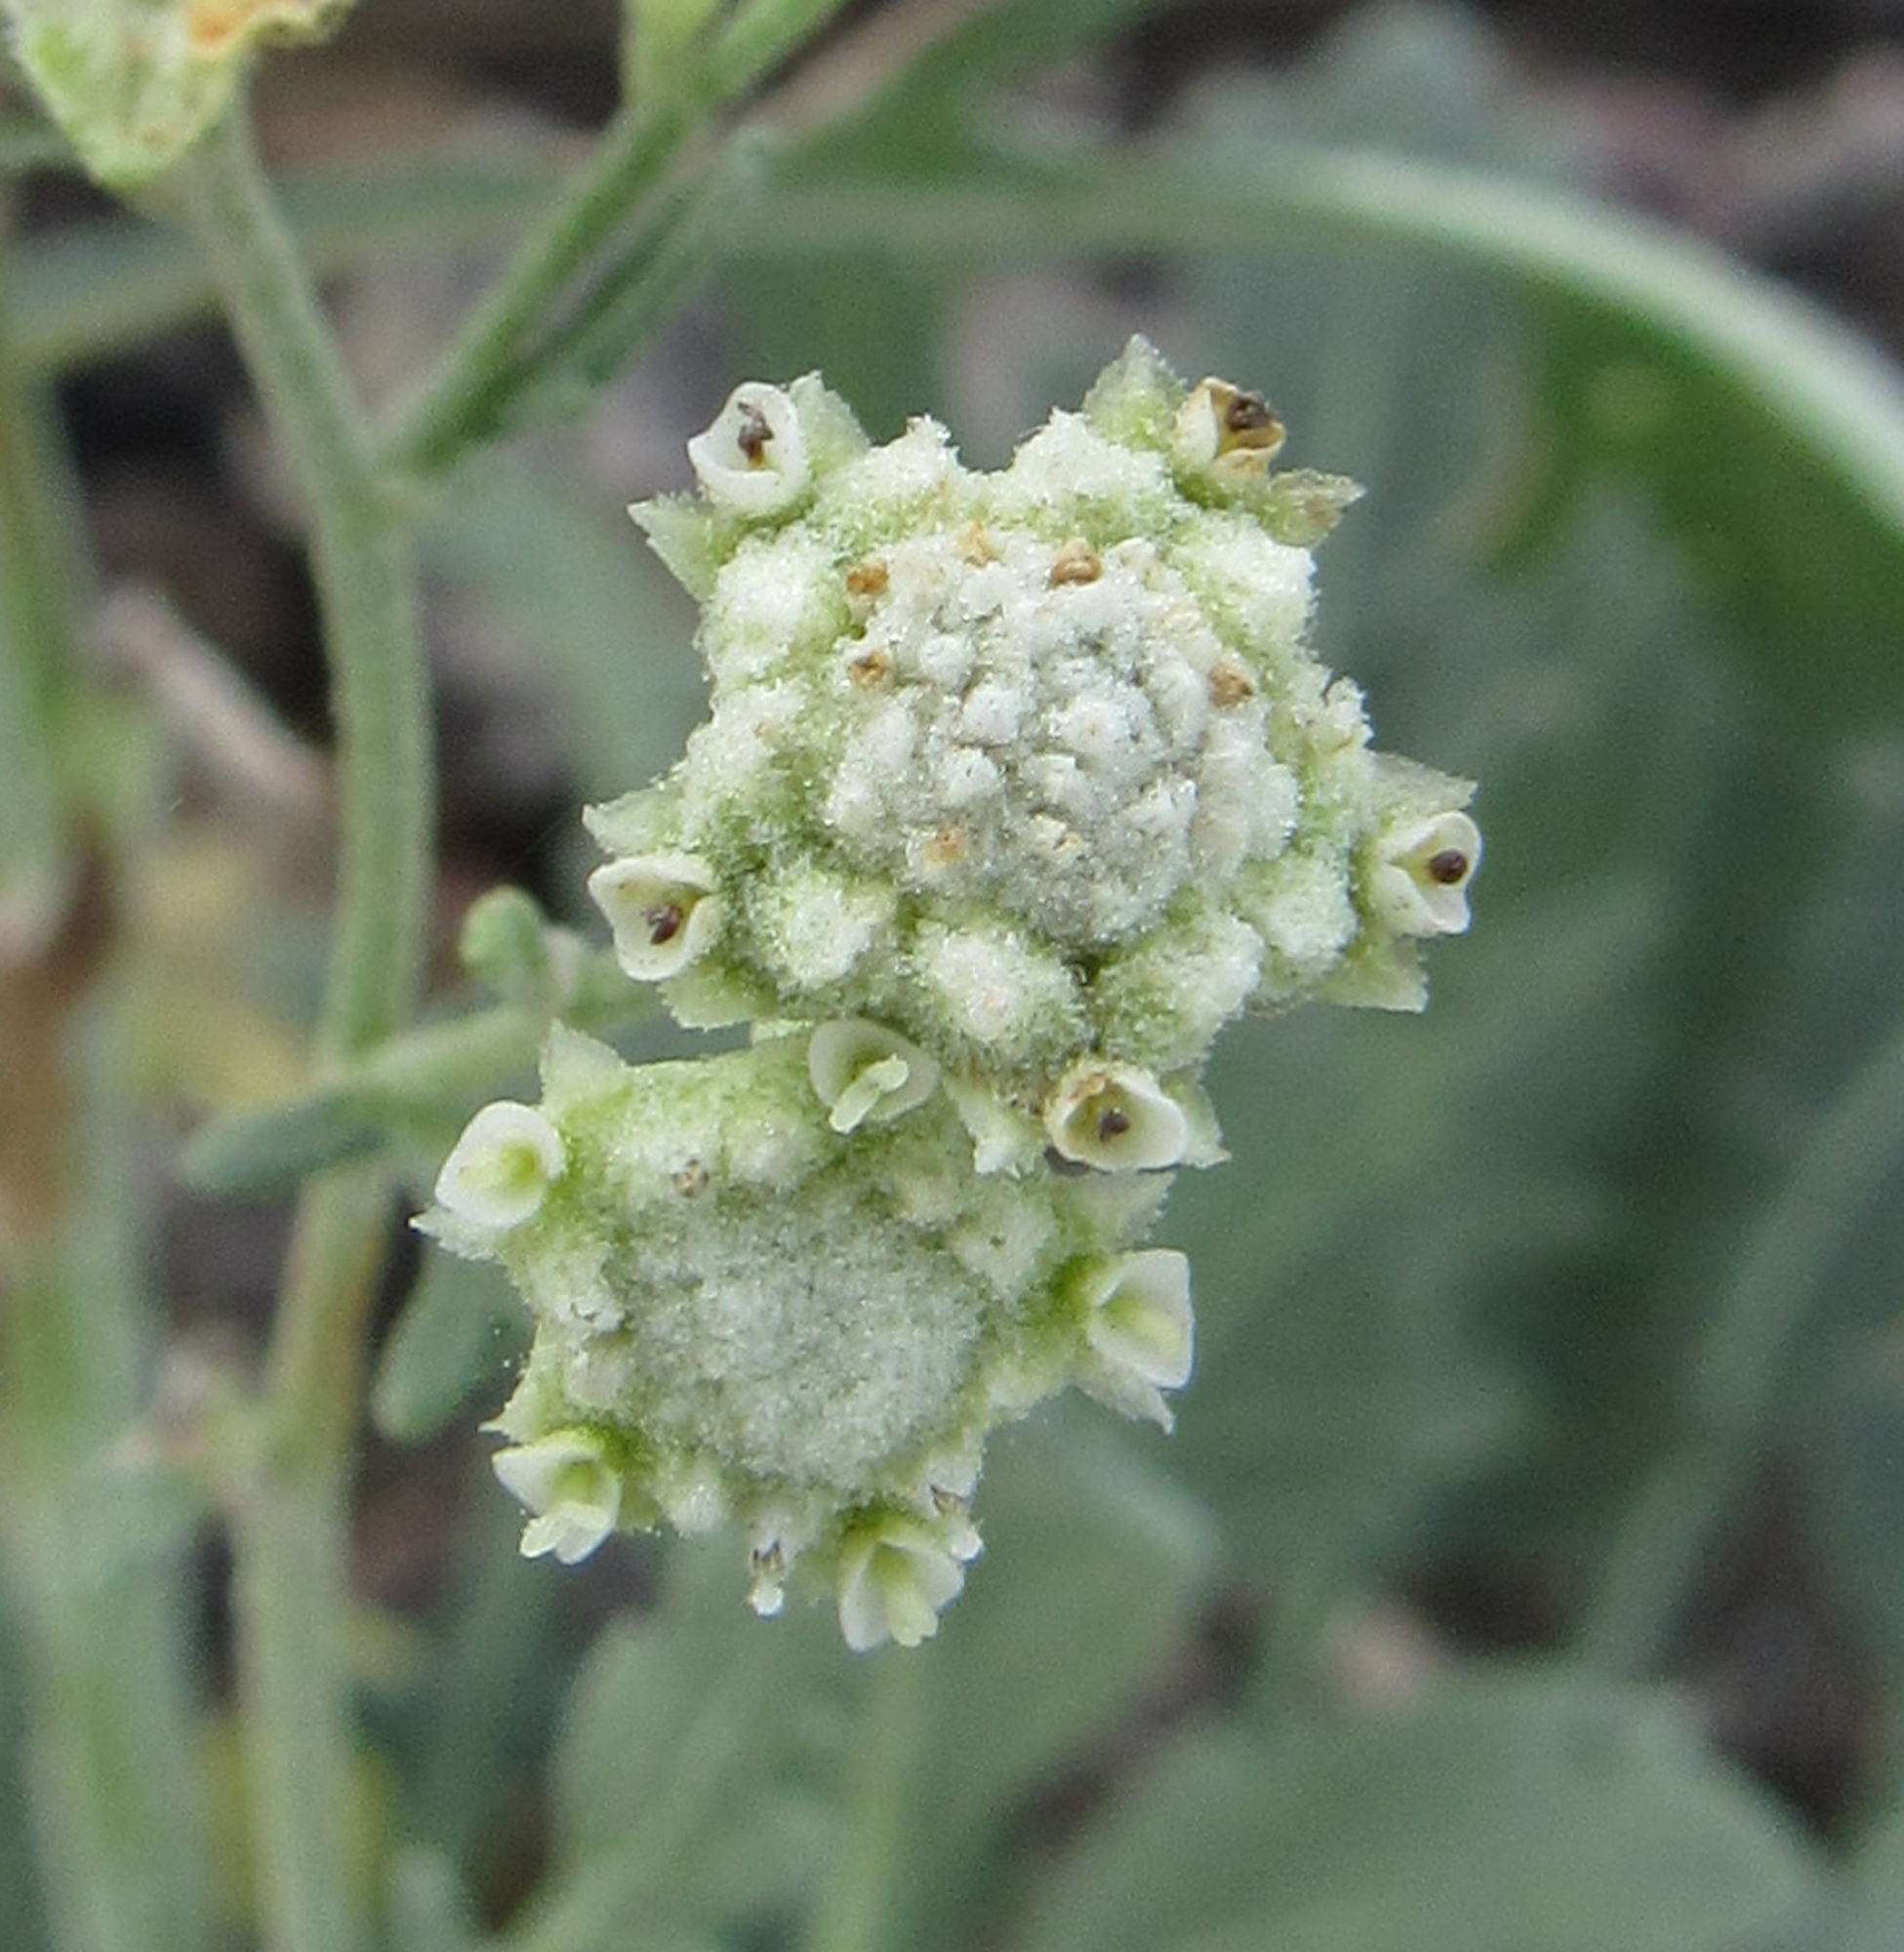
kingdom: Plantae
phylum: Tracheophyta
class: Magnoliopsida
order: Asterales
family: Asteraceae
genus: Parthenium
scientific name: Parthenium confertum
